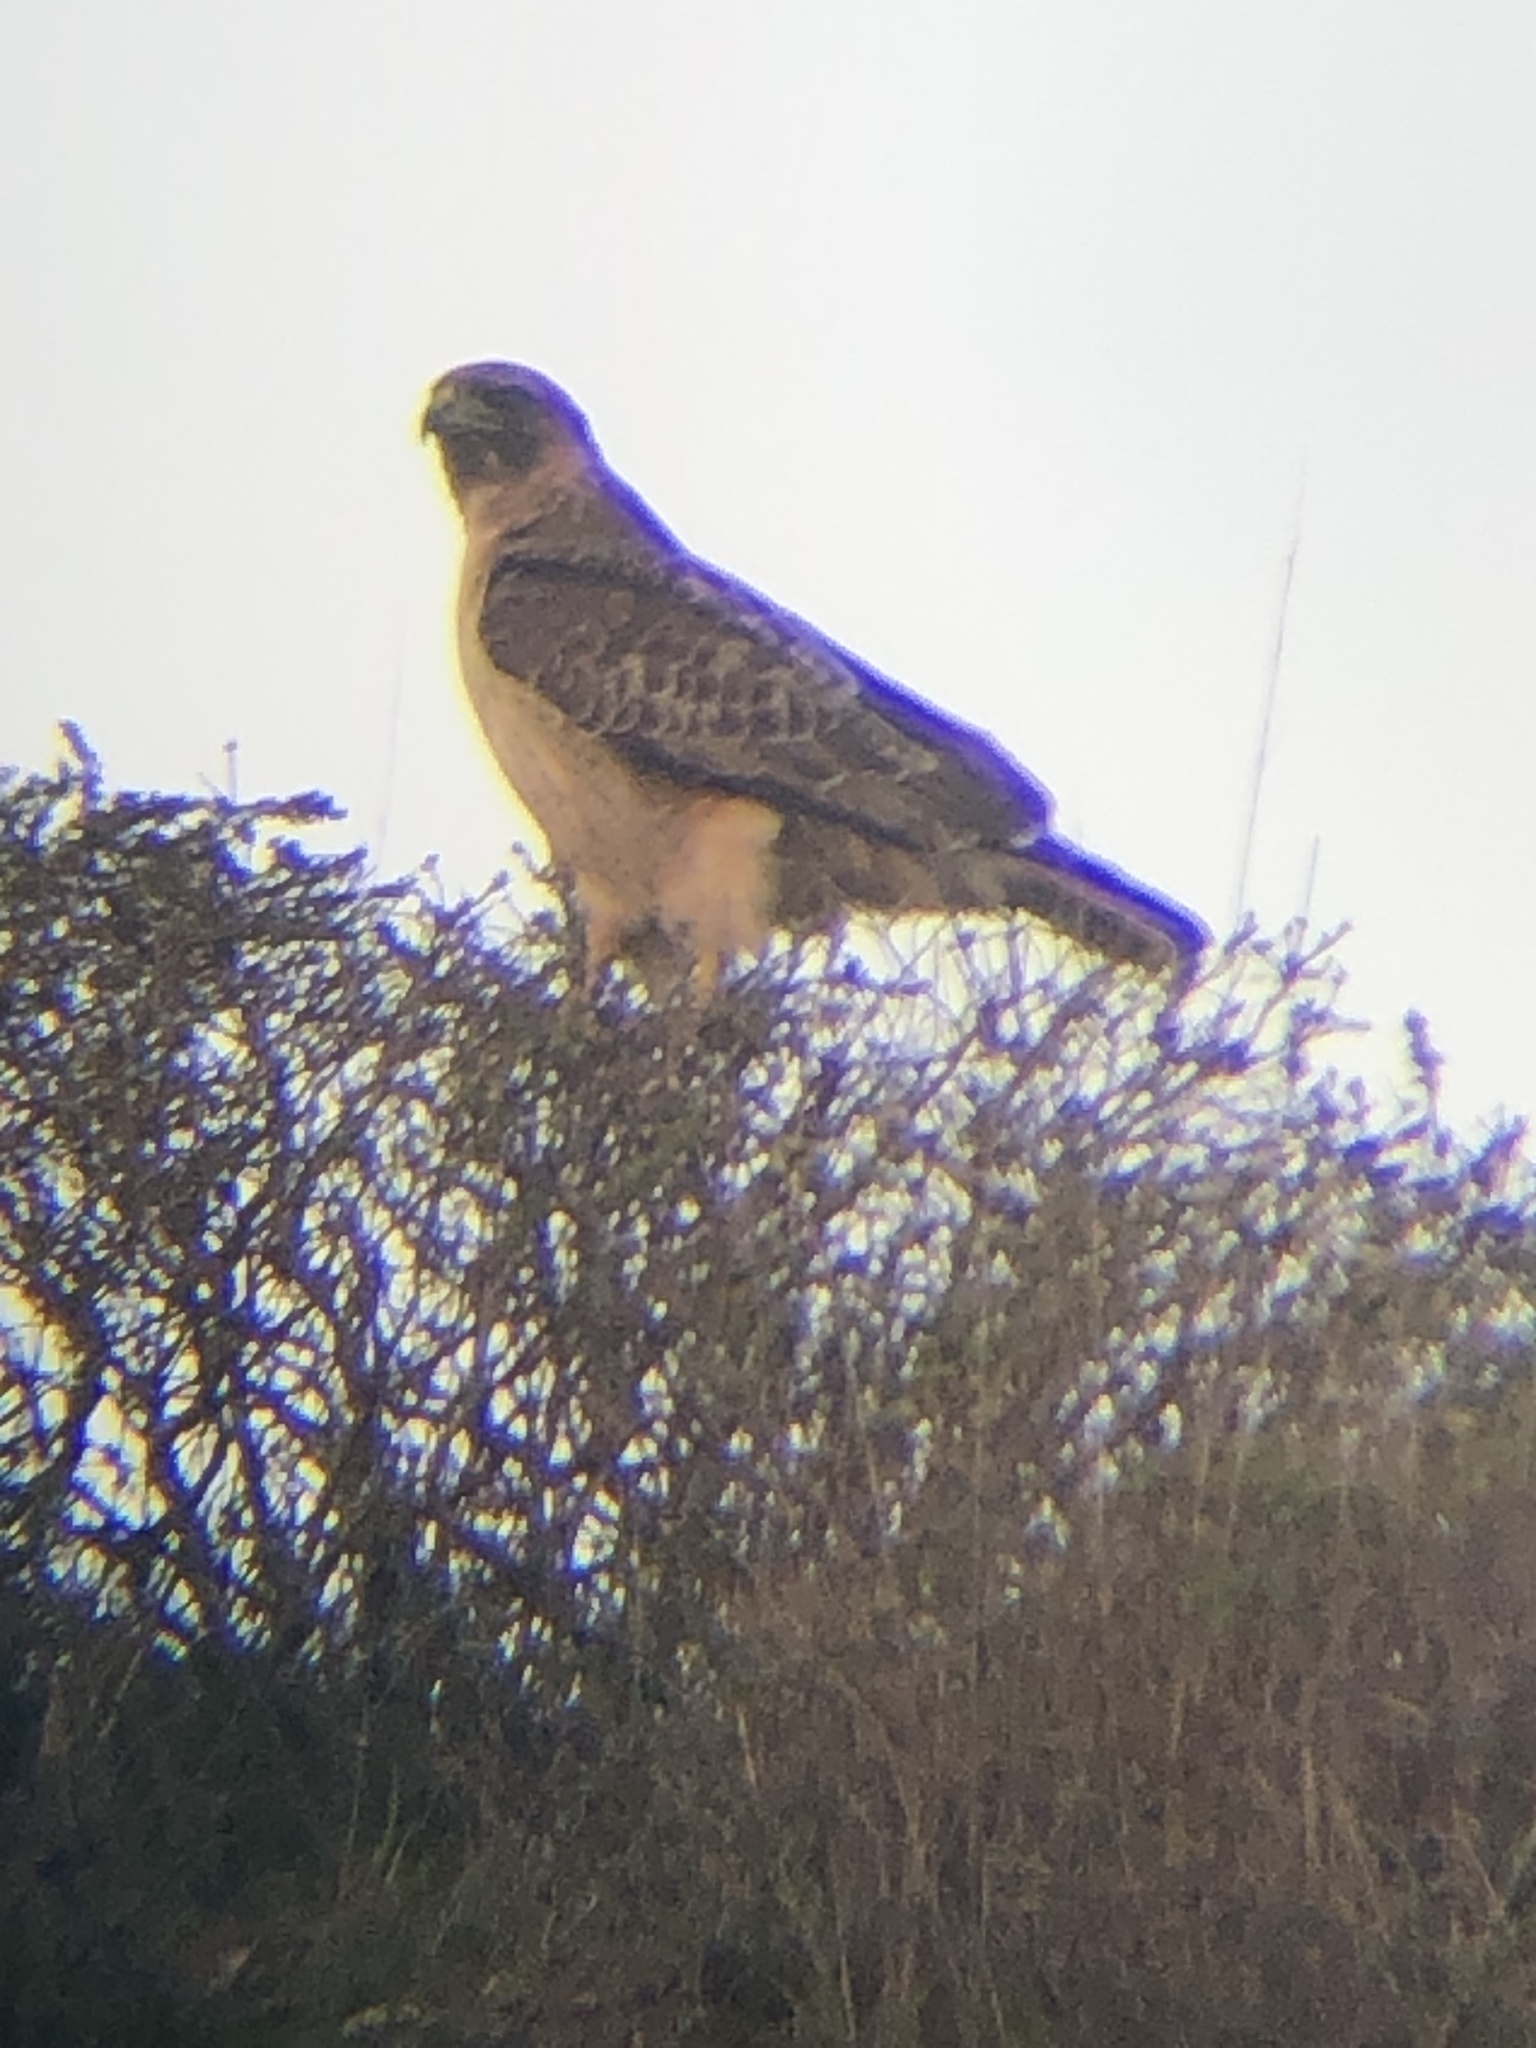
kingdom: Animalia
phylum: Chordata
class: Aves
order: Accipitriformes
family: Accipitridae
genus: Buteo
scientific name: Buteo jamaicensis
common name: Red-tailed hawk
